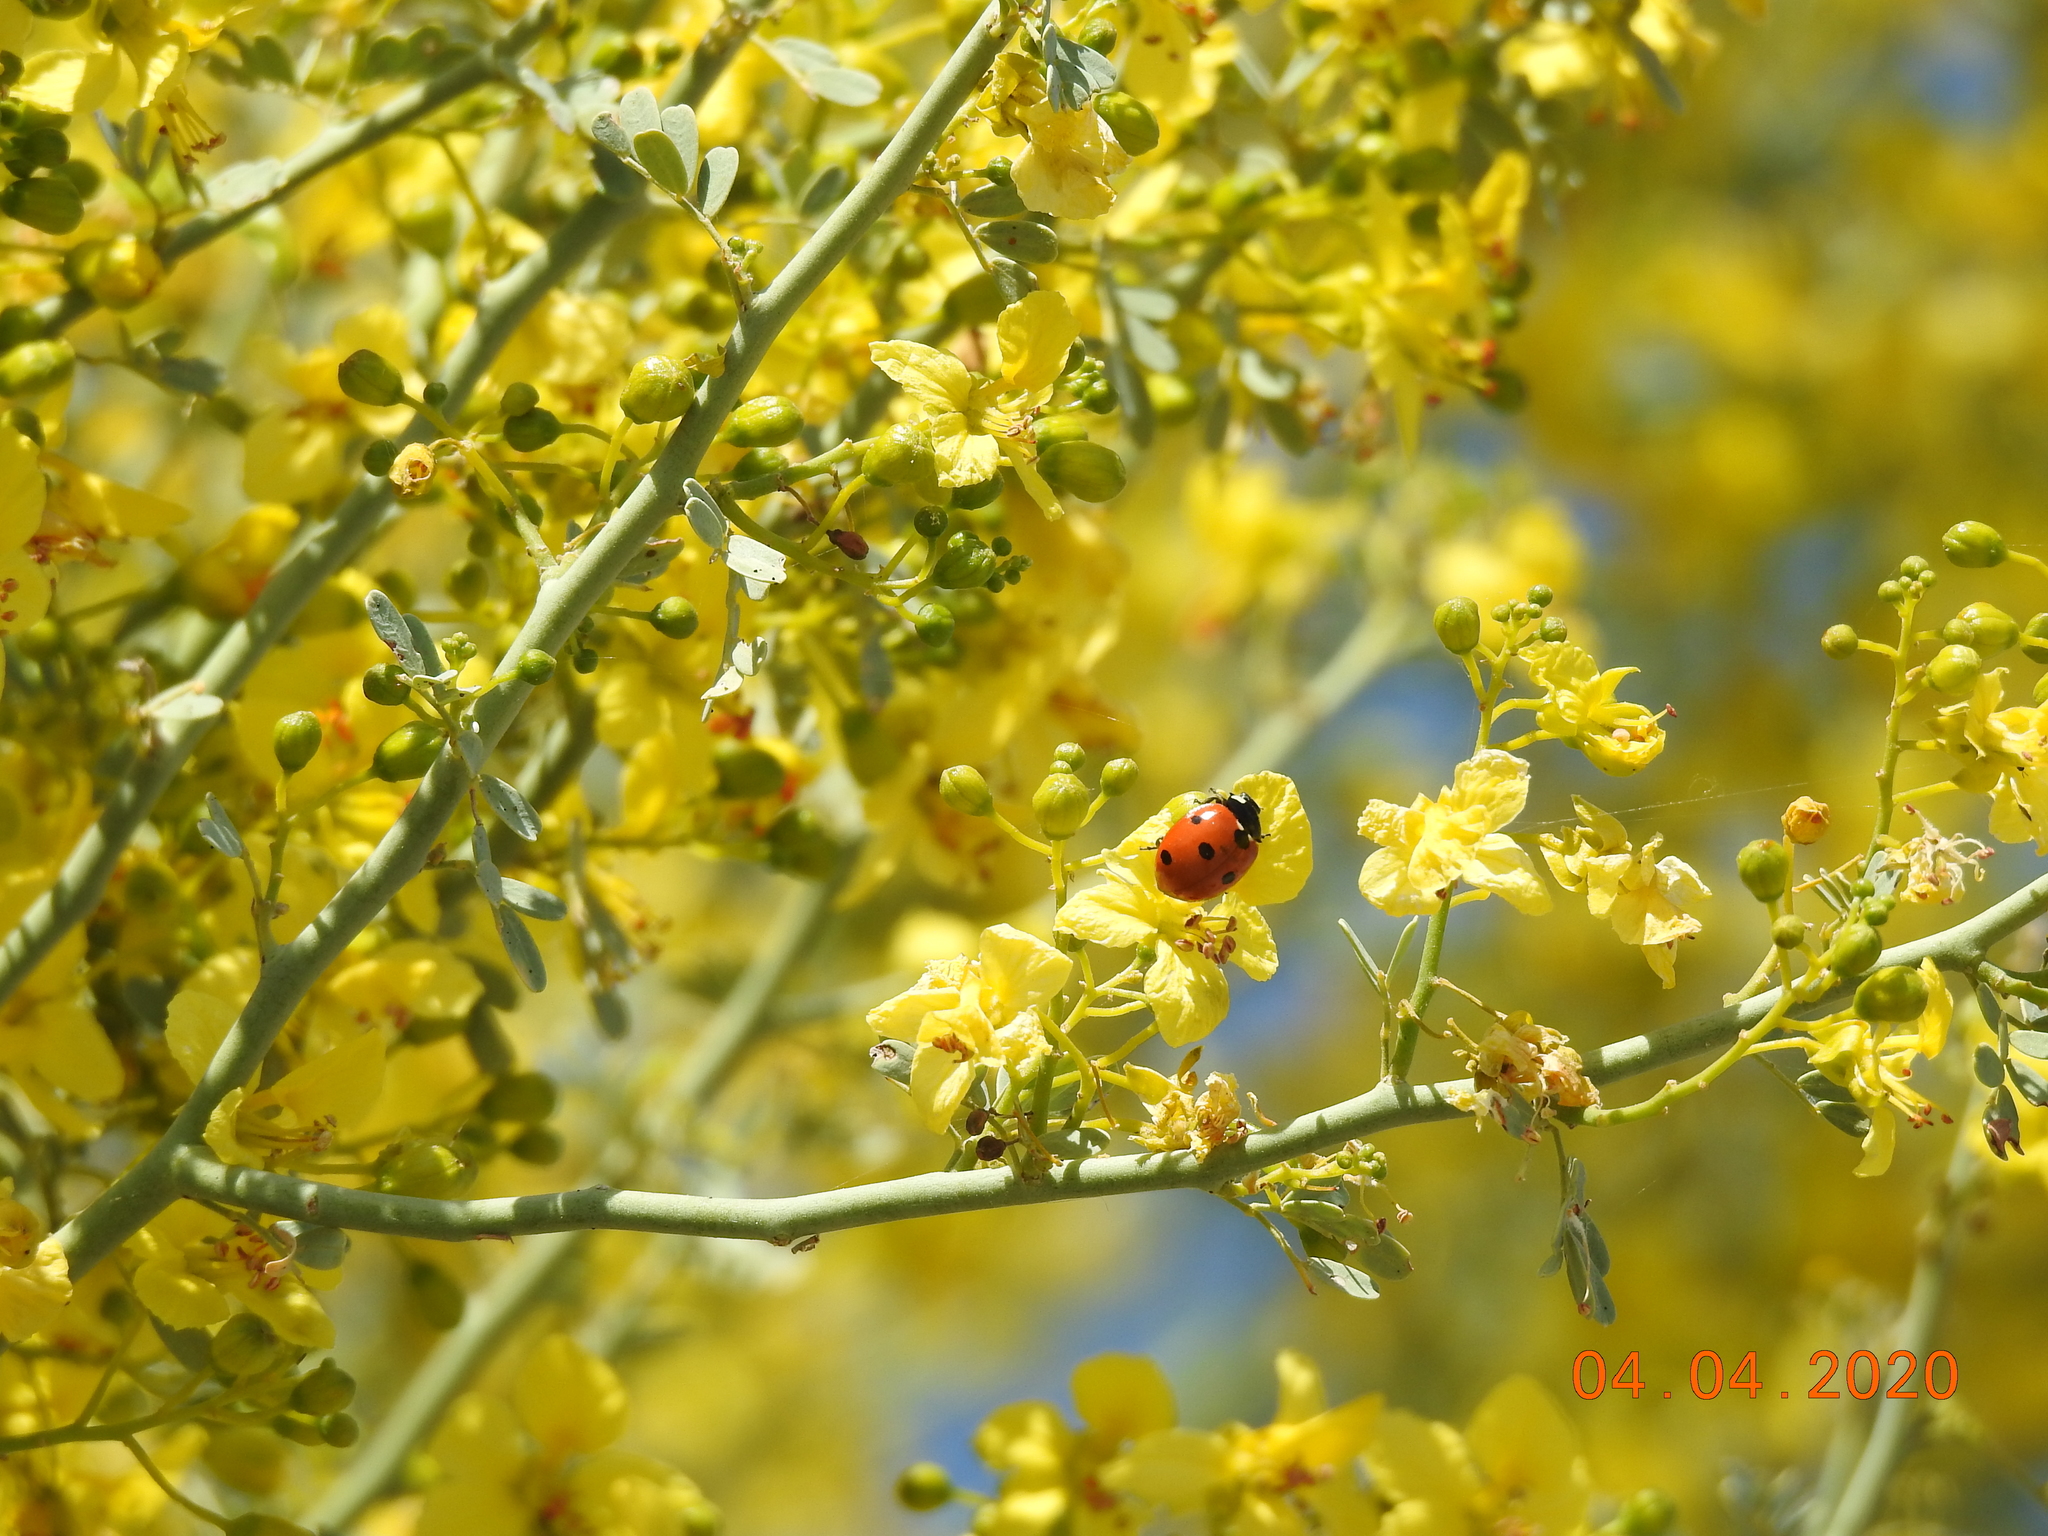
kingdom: Animalia
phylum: Arthropoda
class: Insecta
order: Coleoptera
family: Coccinellidae
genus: Coccinella
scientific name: Coccinella septempunctata
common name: Sevenspotted lady beetle
